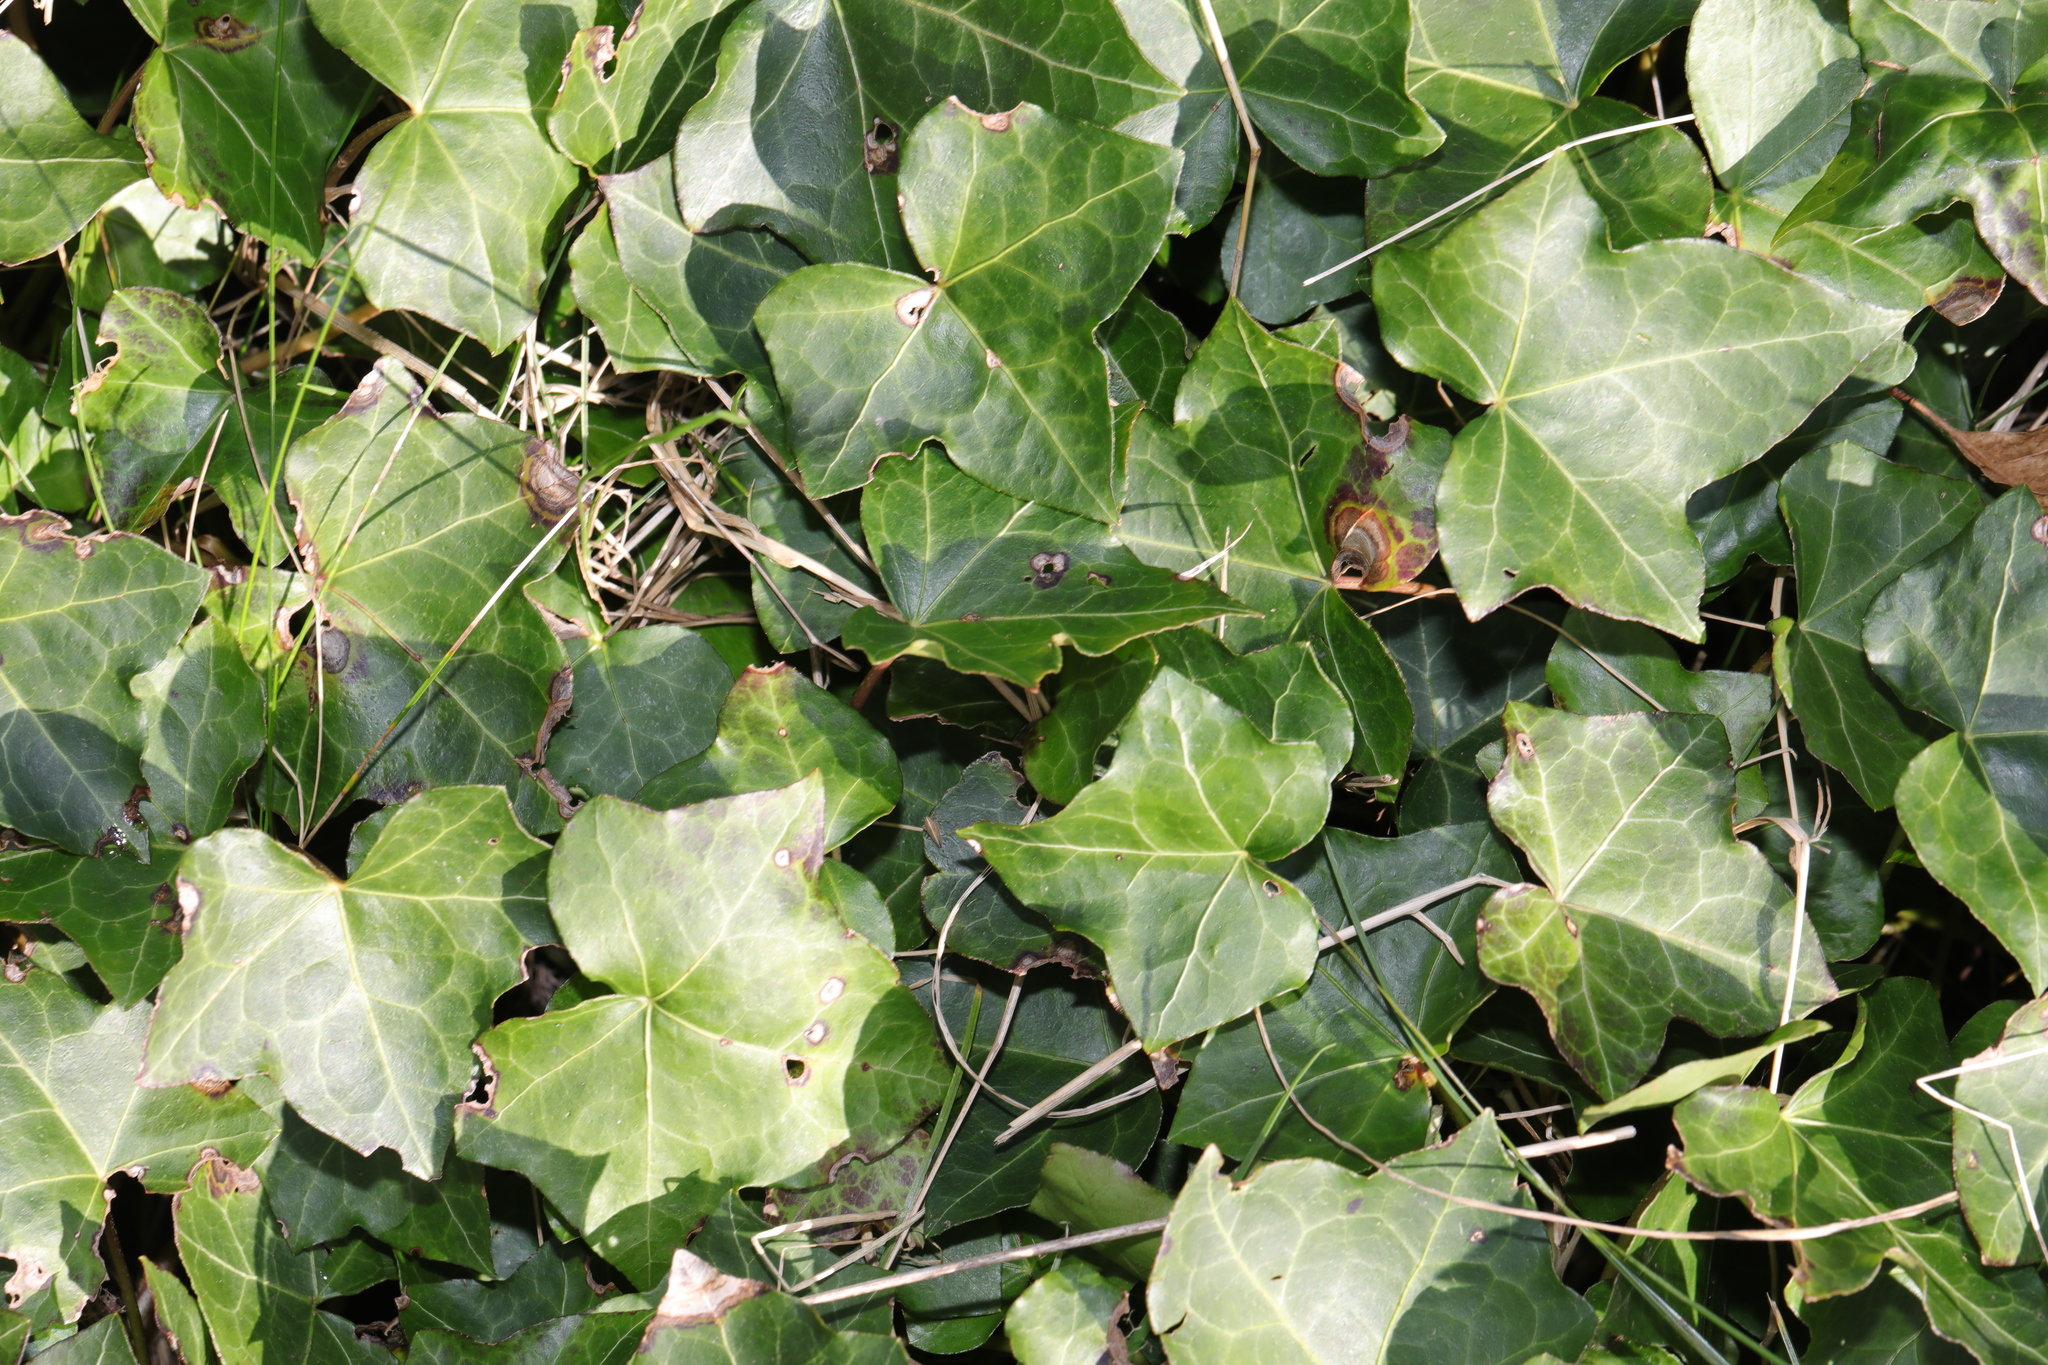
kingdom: Plantae
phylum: Tracheophyta
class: Magnoliopsida
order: Apiales
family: Araliaceae
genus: Hedera
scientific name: Hedera helix
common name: Ivy
